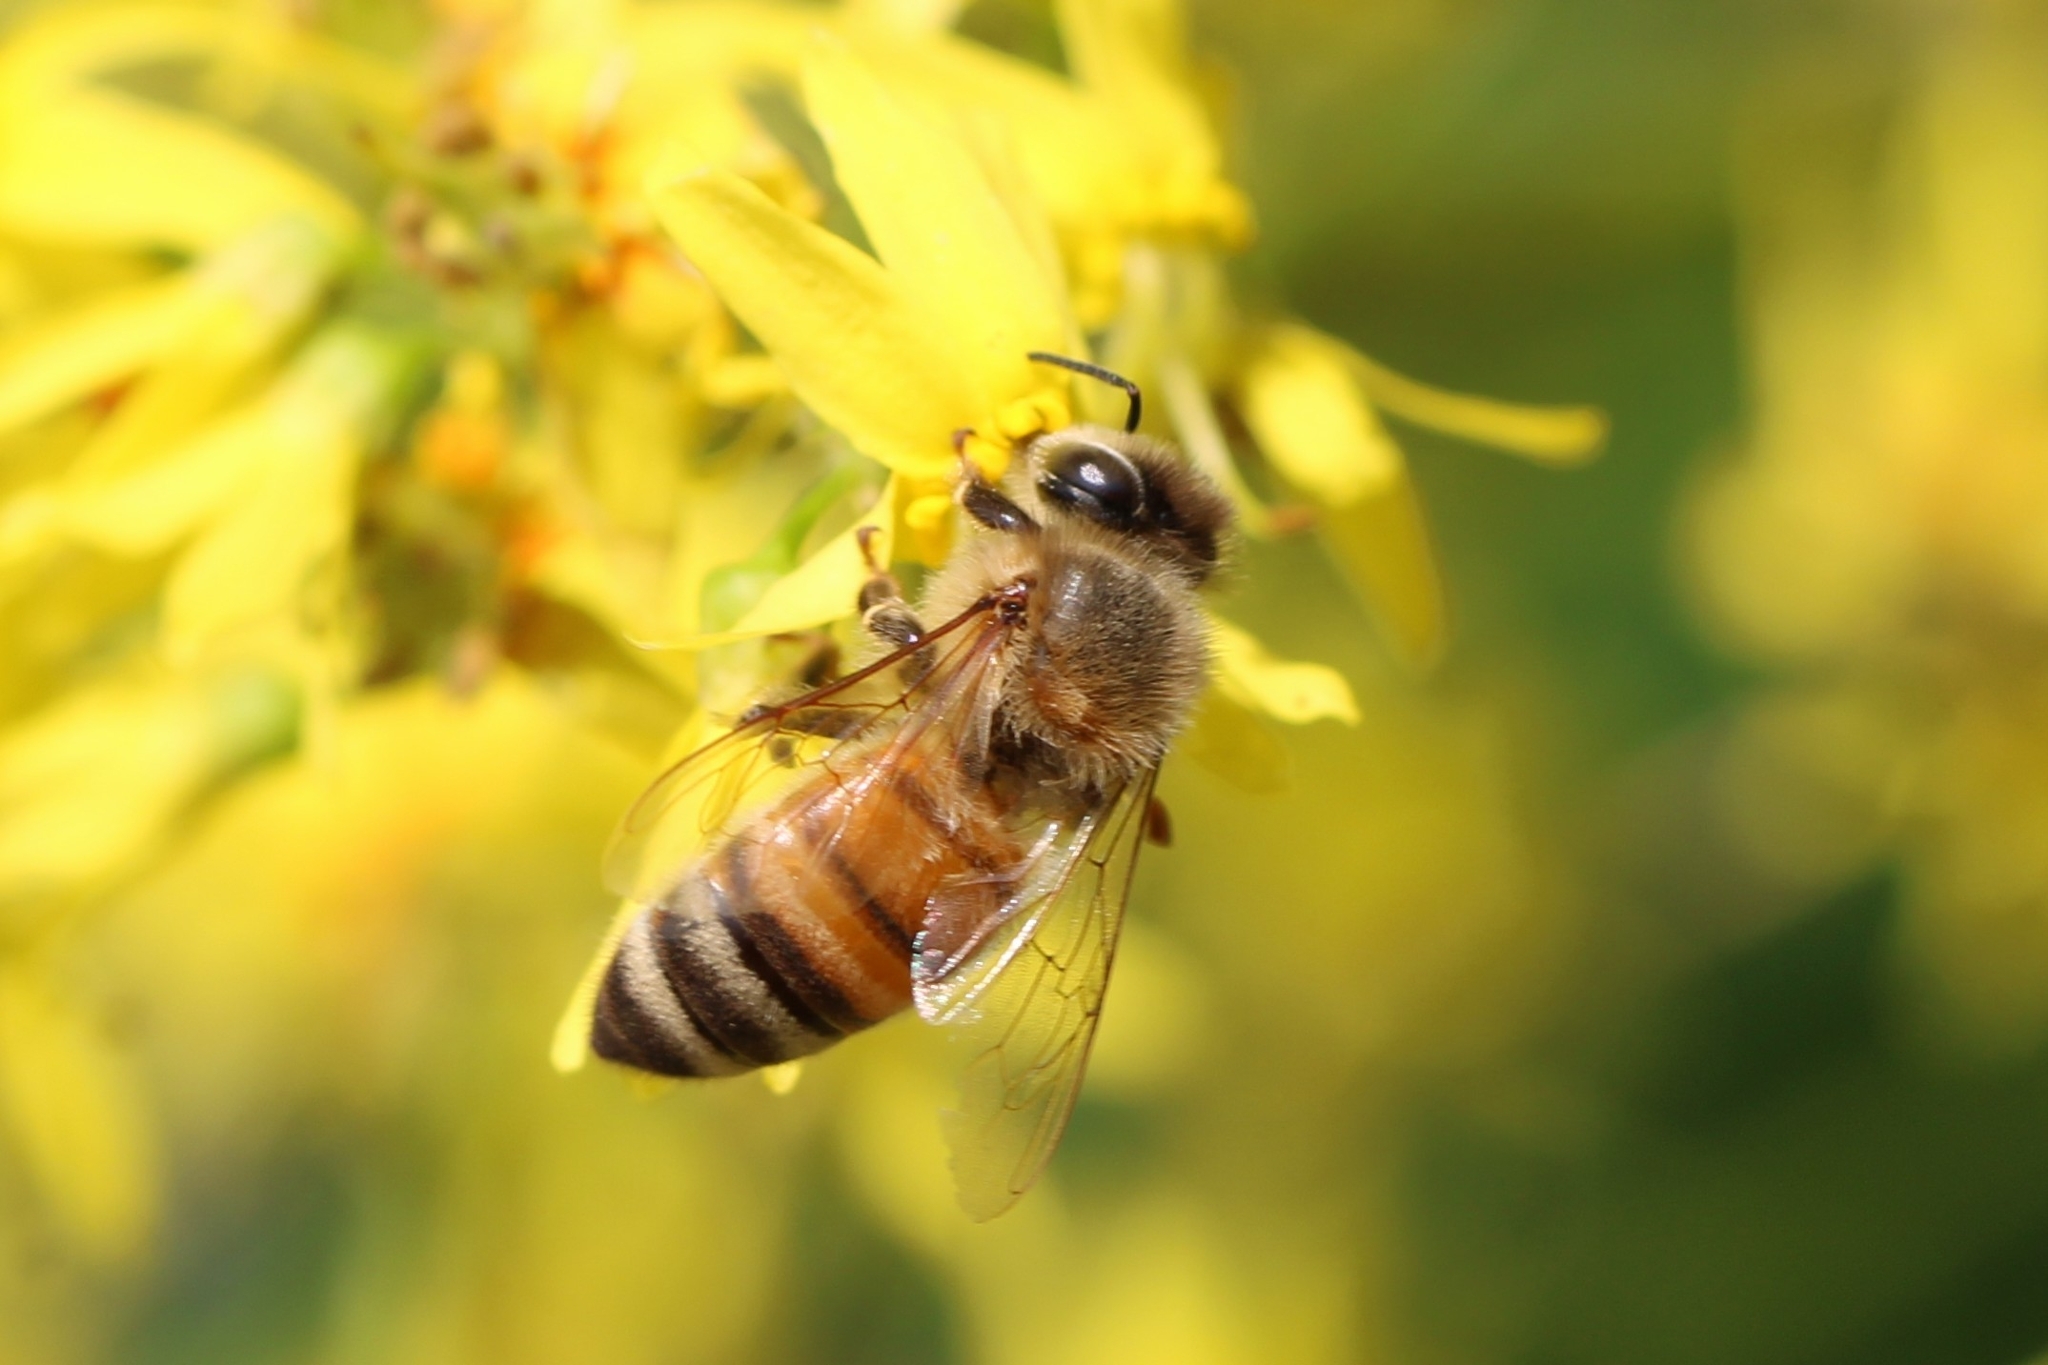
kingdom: Animalia
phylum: Arthropoda
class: Insecta
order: Hymenoptera
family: Apidae
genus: Apis
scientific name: Apis mellifera
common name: Honey bee
